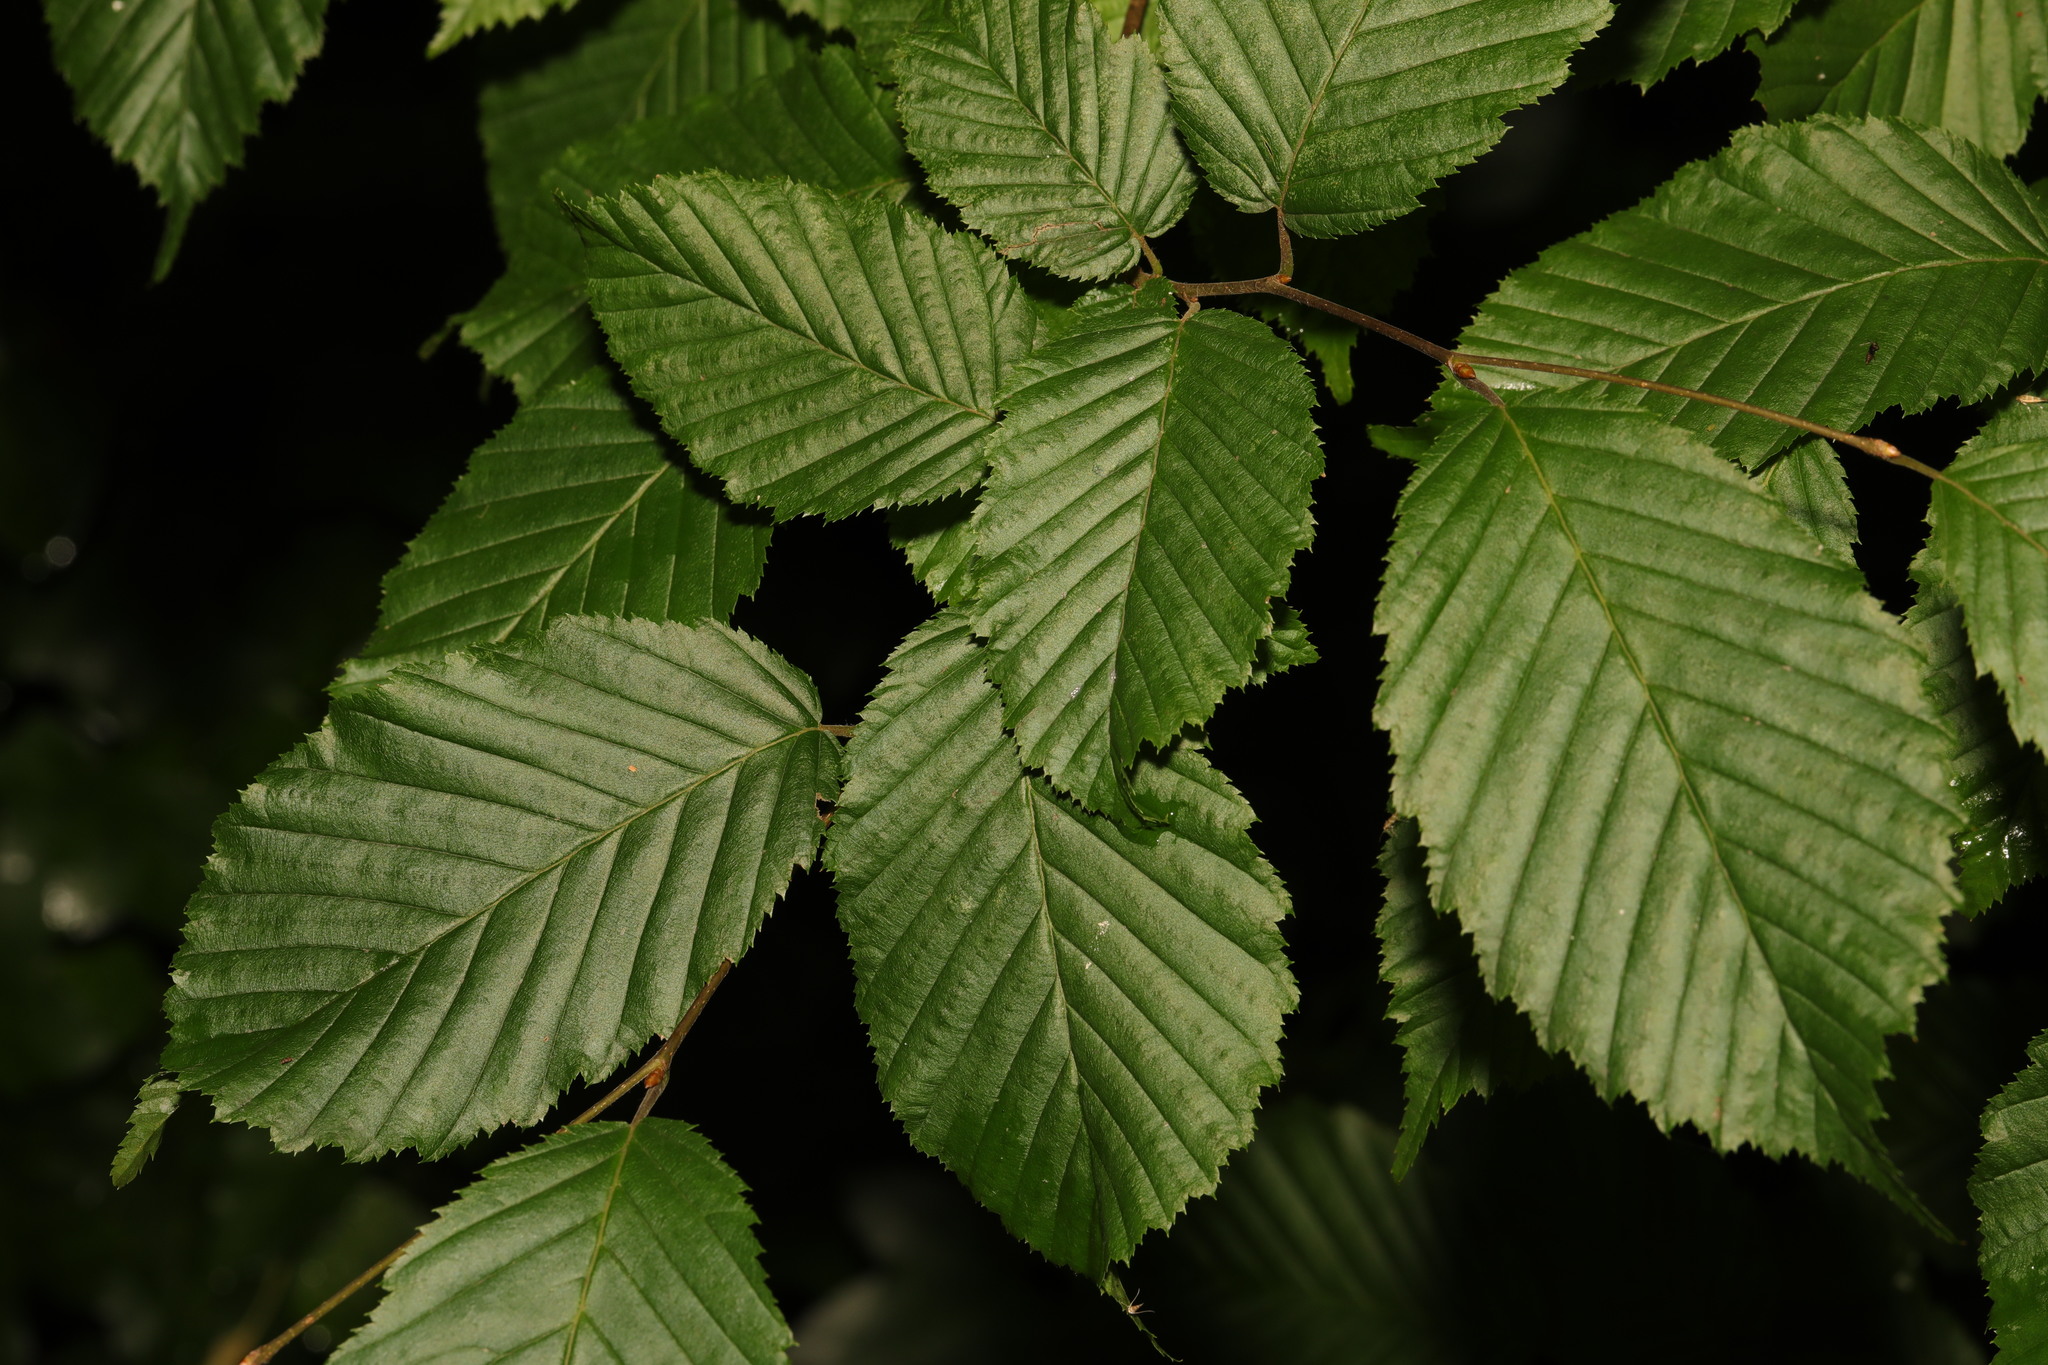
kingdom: Plantae
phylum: Tracheophyta
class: Magnoliopsida
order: Fagales
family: Betulaceae
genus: Carpinus
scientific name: Carpinus betulus
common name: Hornbeam
